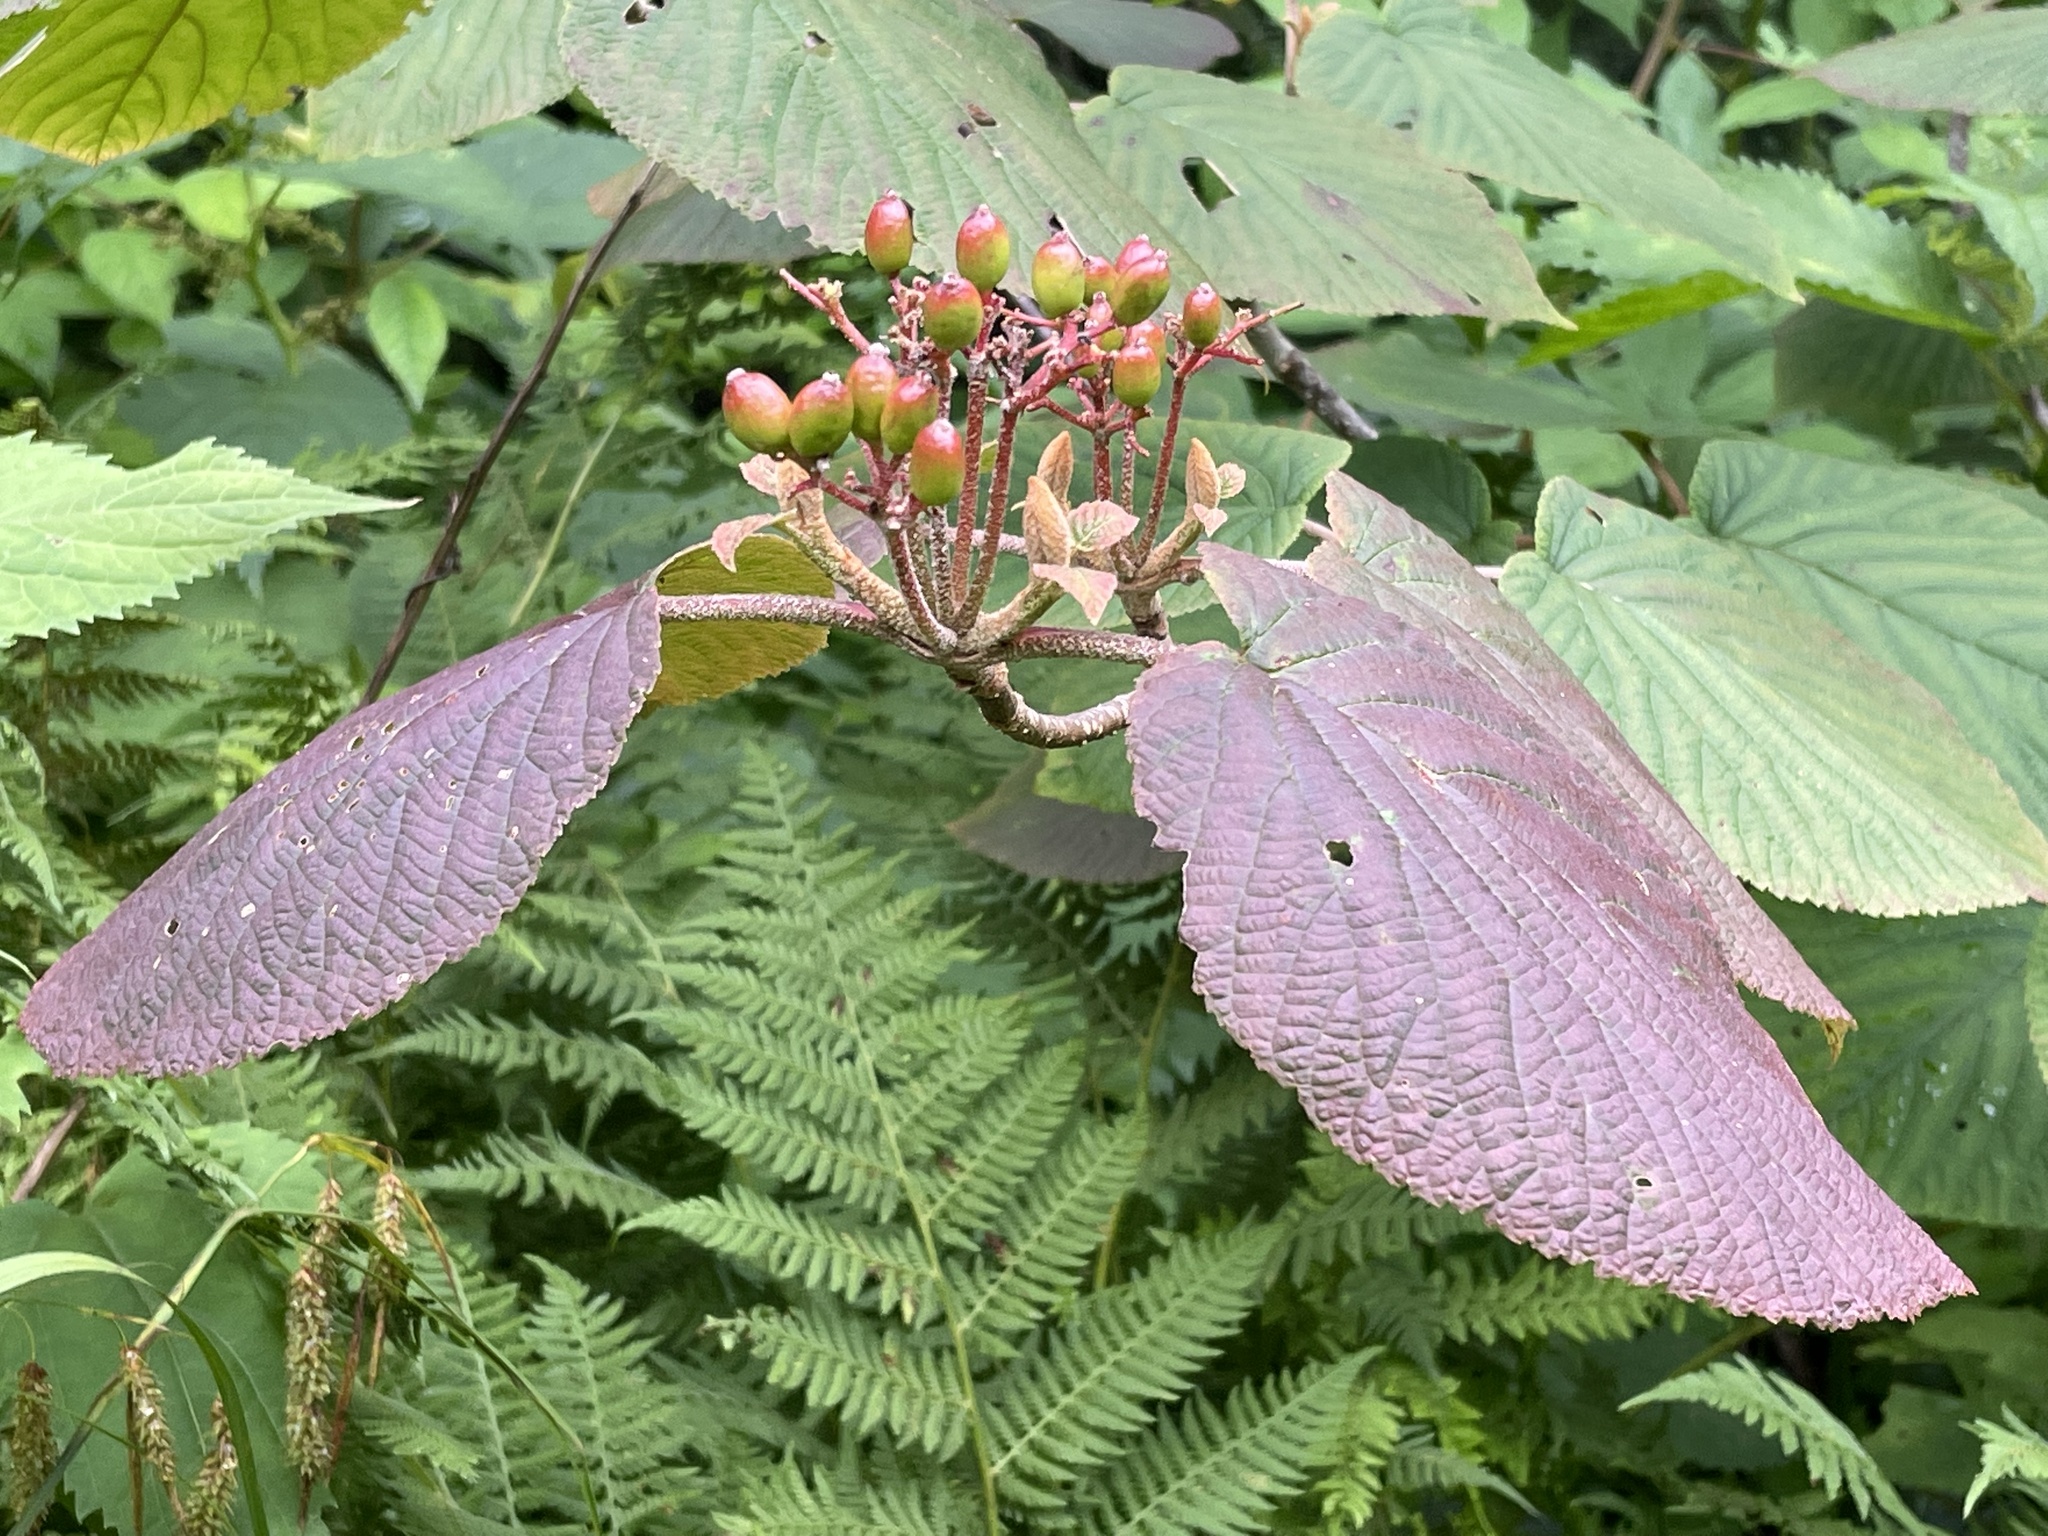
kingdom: Plantae
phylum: Tracheophyta
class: Magnoliopsida
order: Dipsacales
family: Viburnaceae
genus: Viburnum
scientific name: Viburnum lantanoides
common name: Hobblebush
